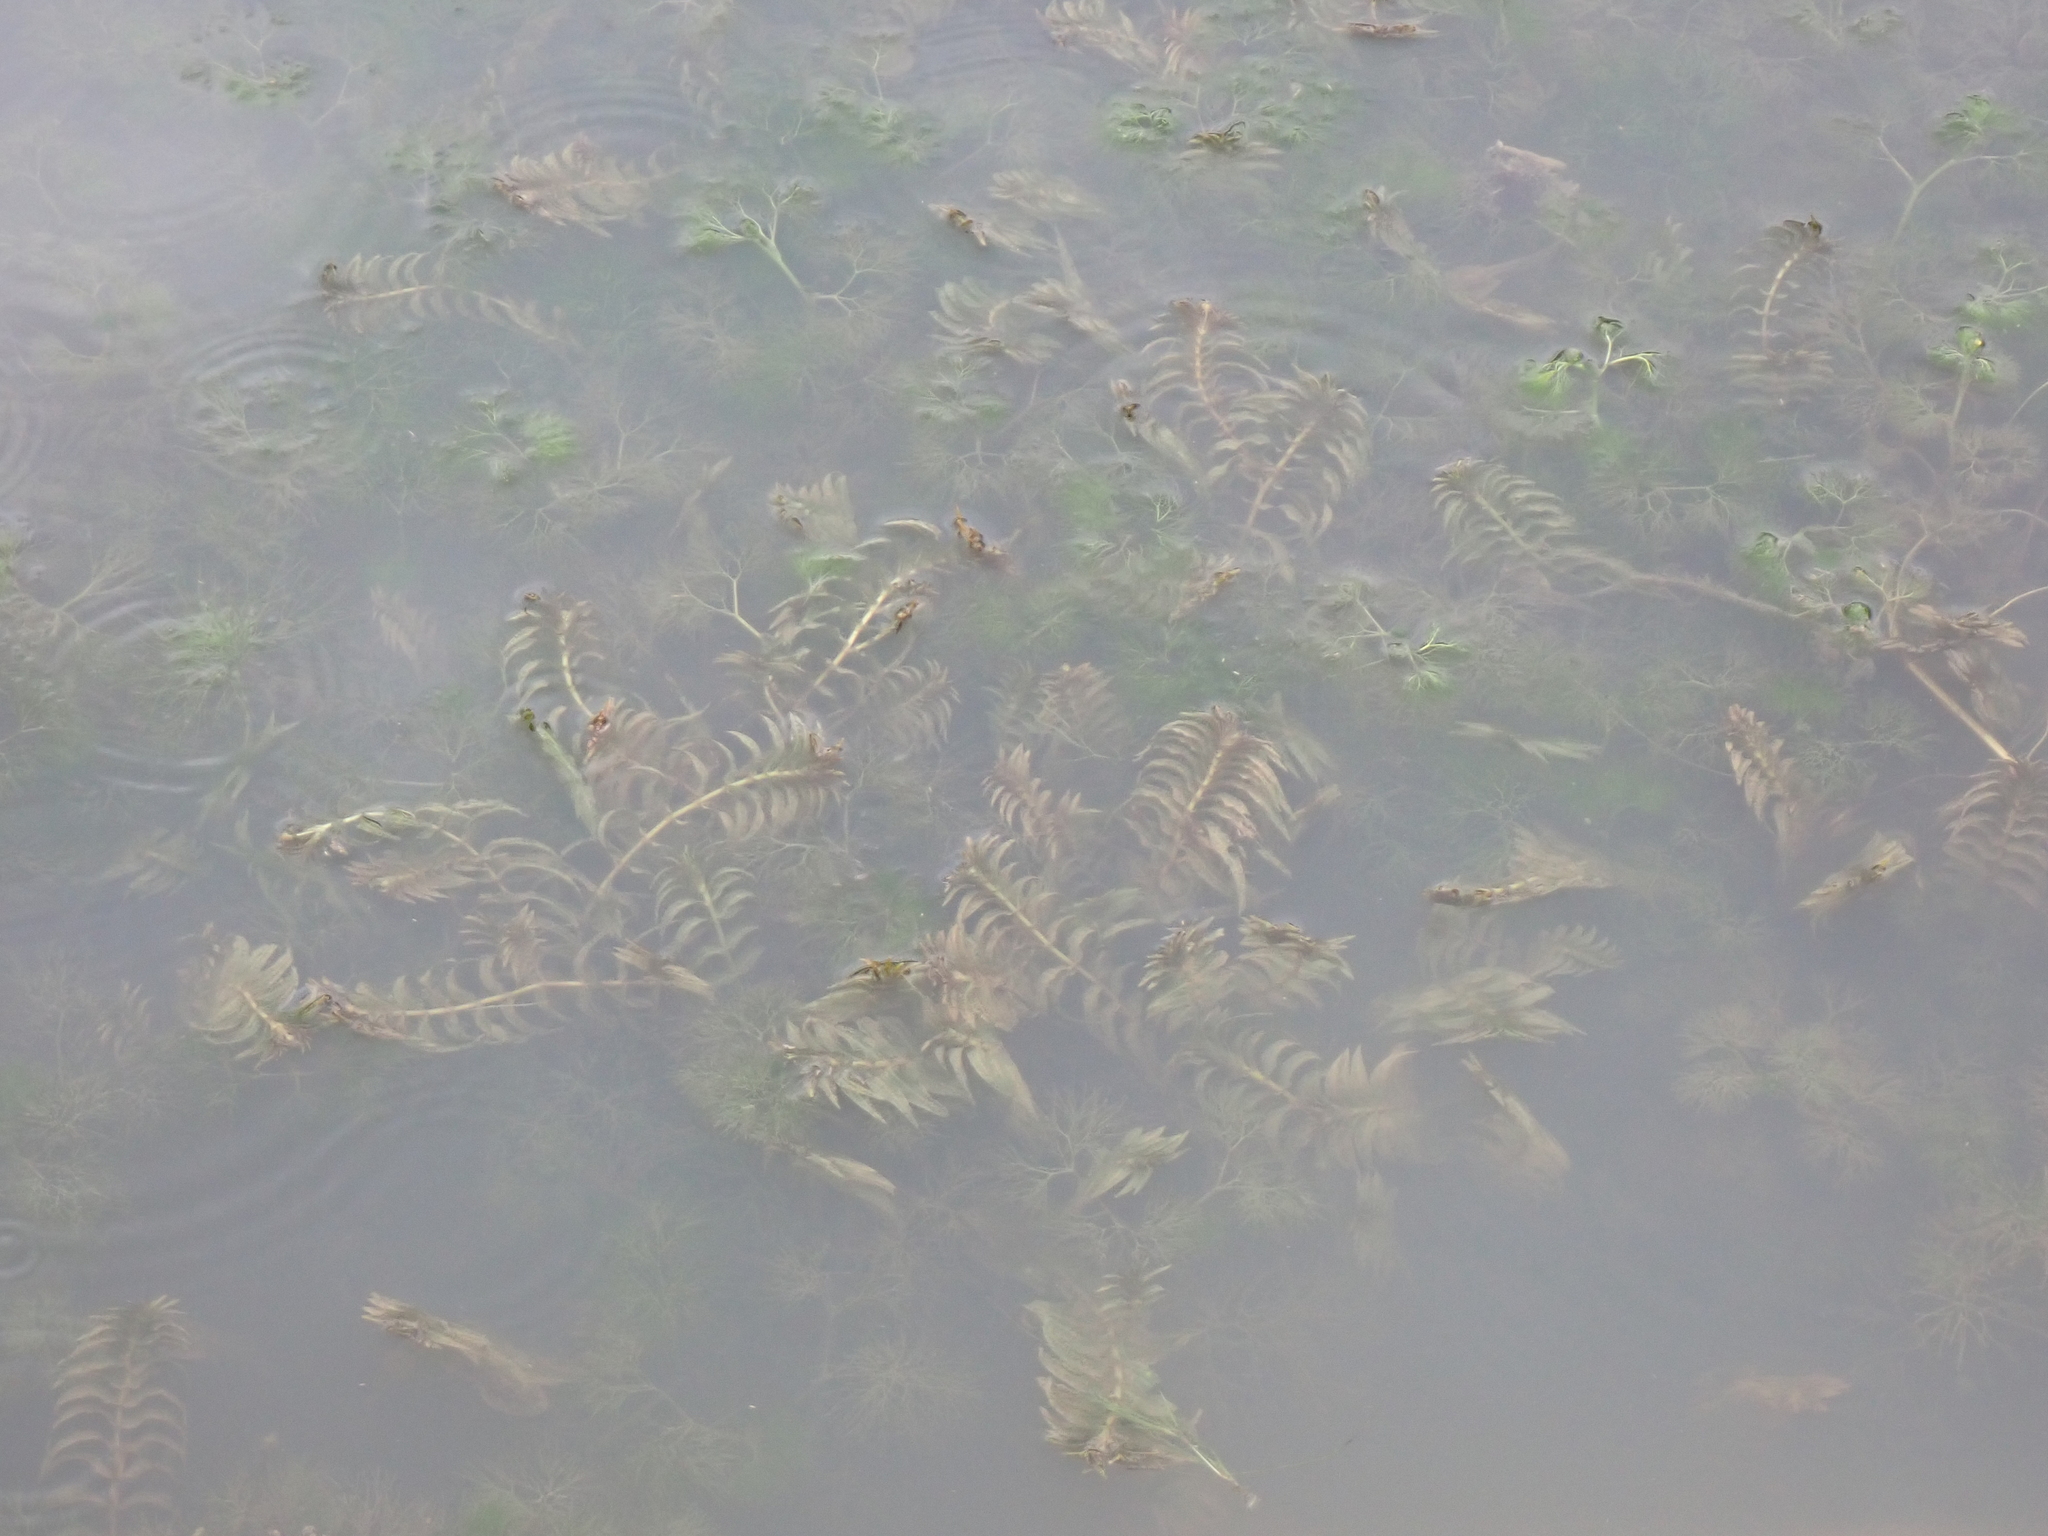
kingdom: Plantae
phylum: Tracheophyta
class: Liliopsida
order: Alismatales
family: Potamogetonaceae
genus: Groenlandia
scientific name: Groenlandia densa
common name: Opposite-leaved pondweed
